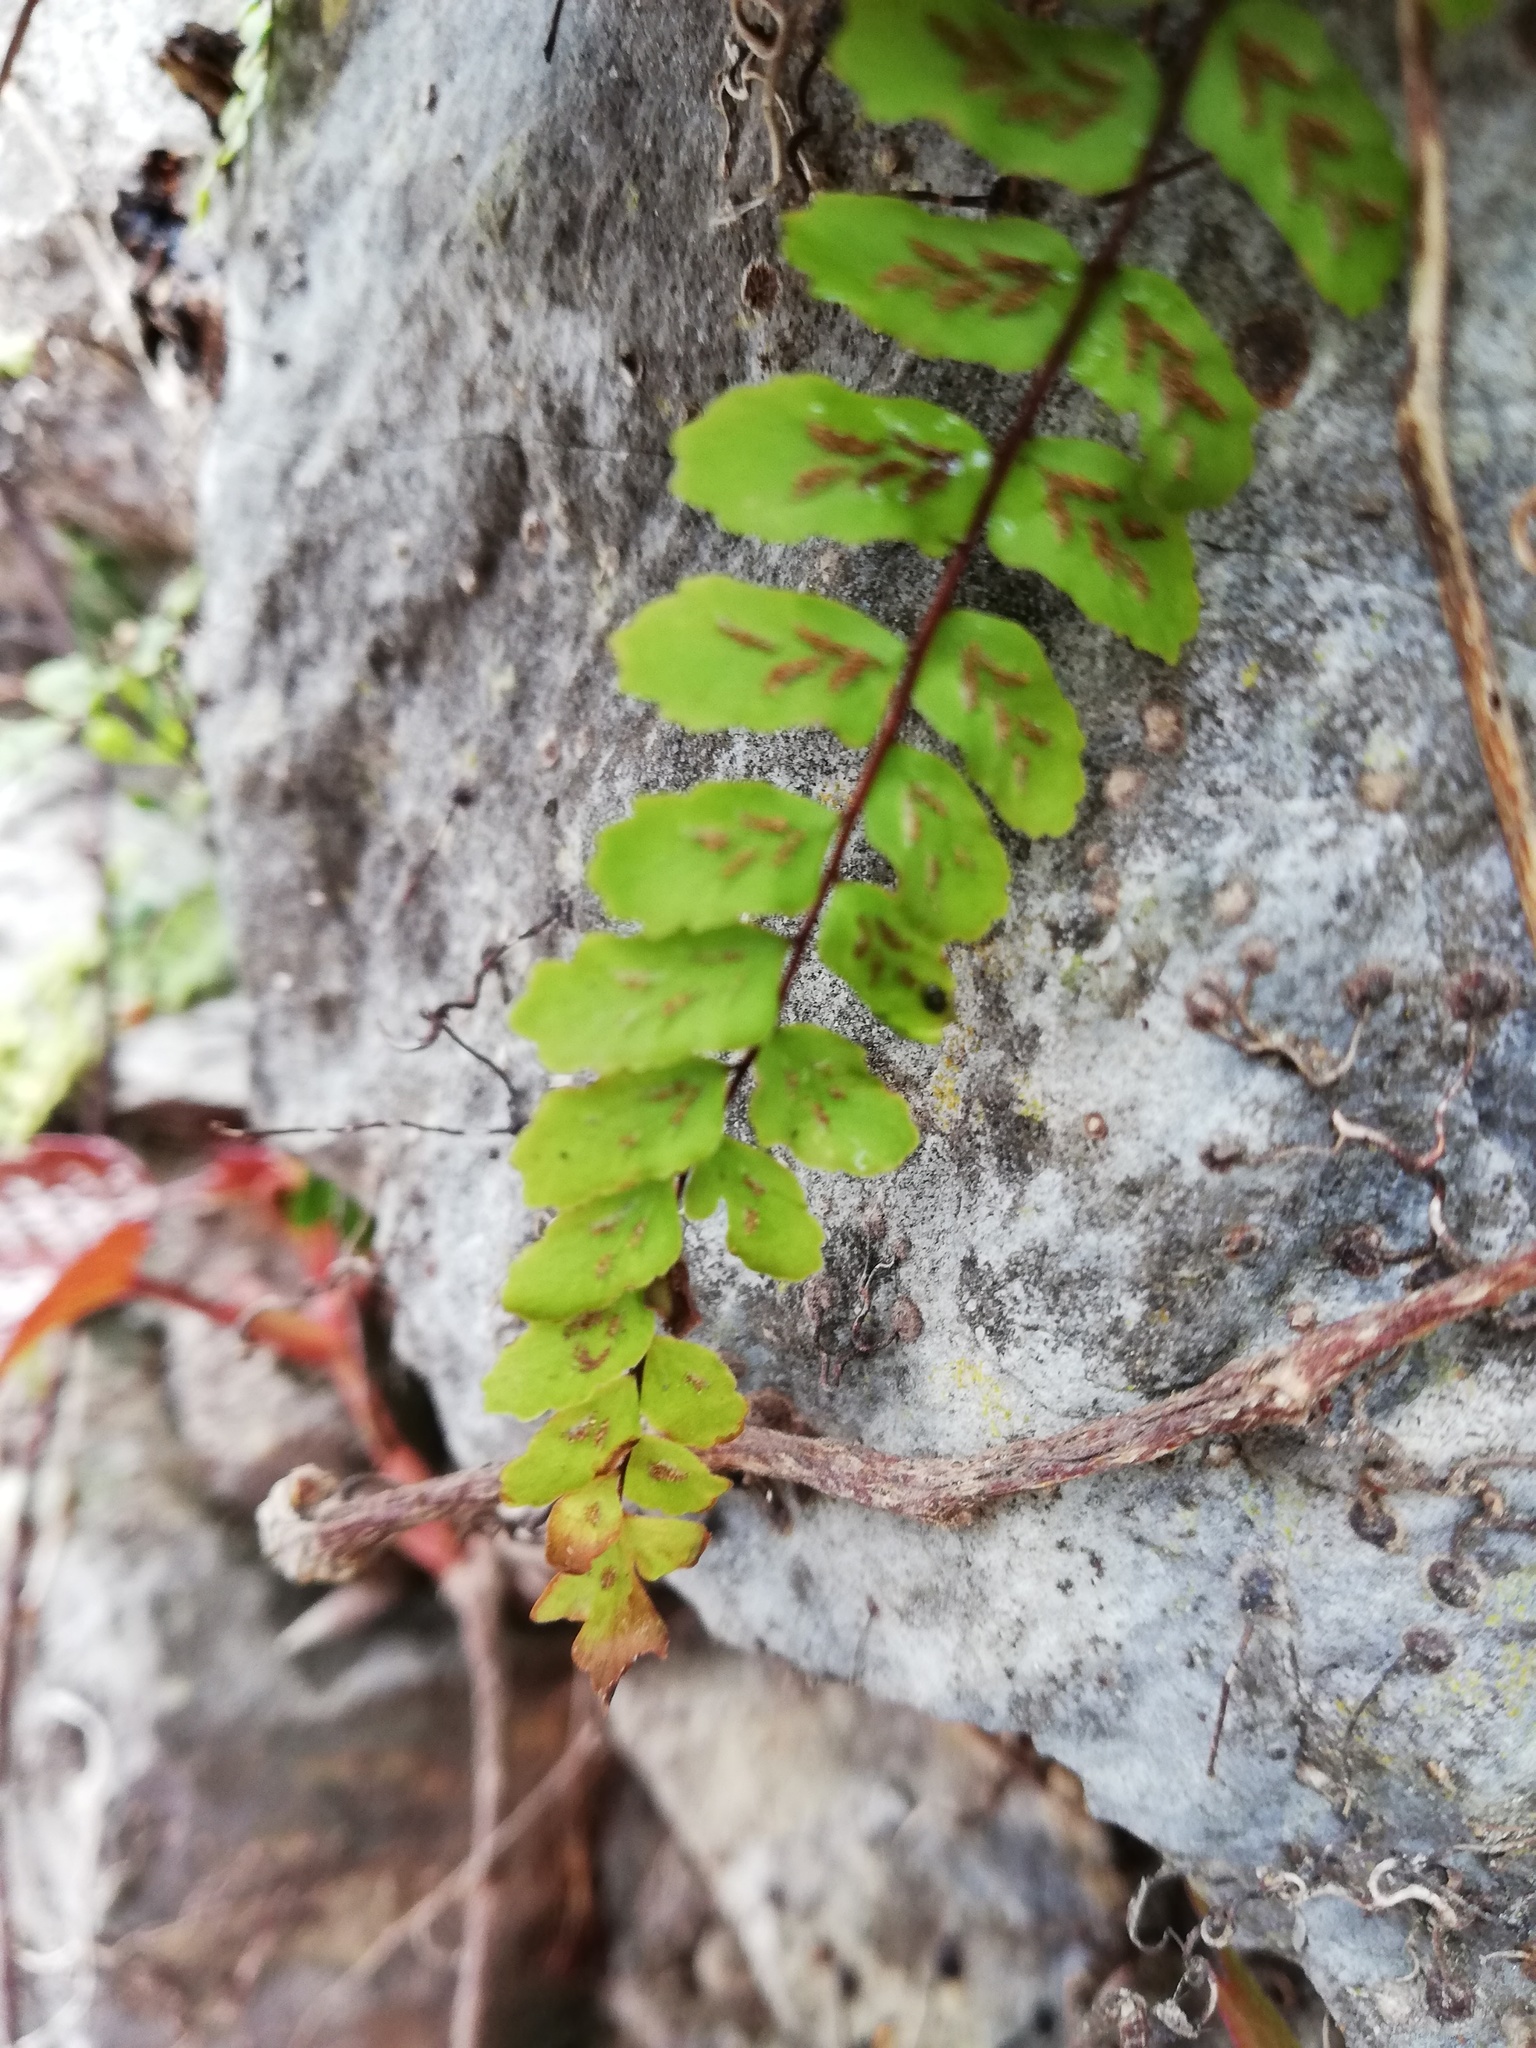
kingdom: Plantae
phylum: Tracheophyta
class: Polypodiopsida
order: Polypodiales
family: Aspleniaceae
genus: Asplenium
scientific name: Asplenium trichomanes
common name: Maidenhair spleenwort
